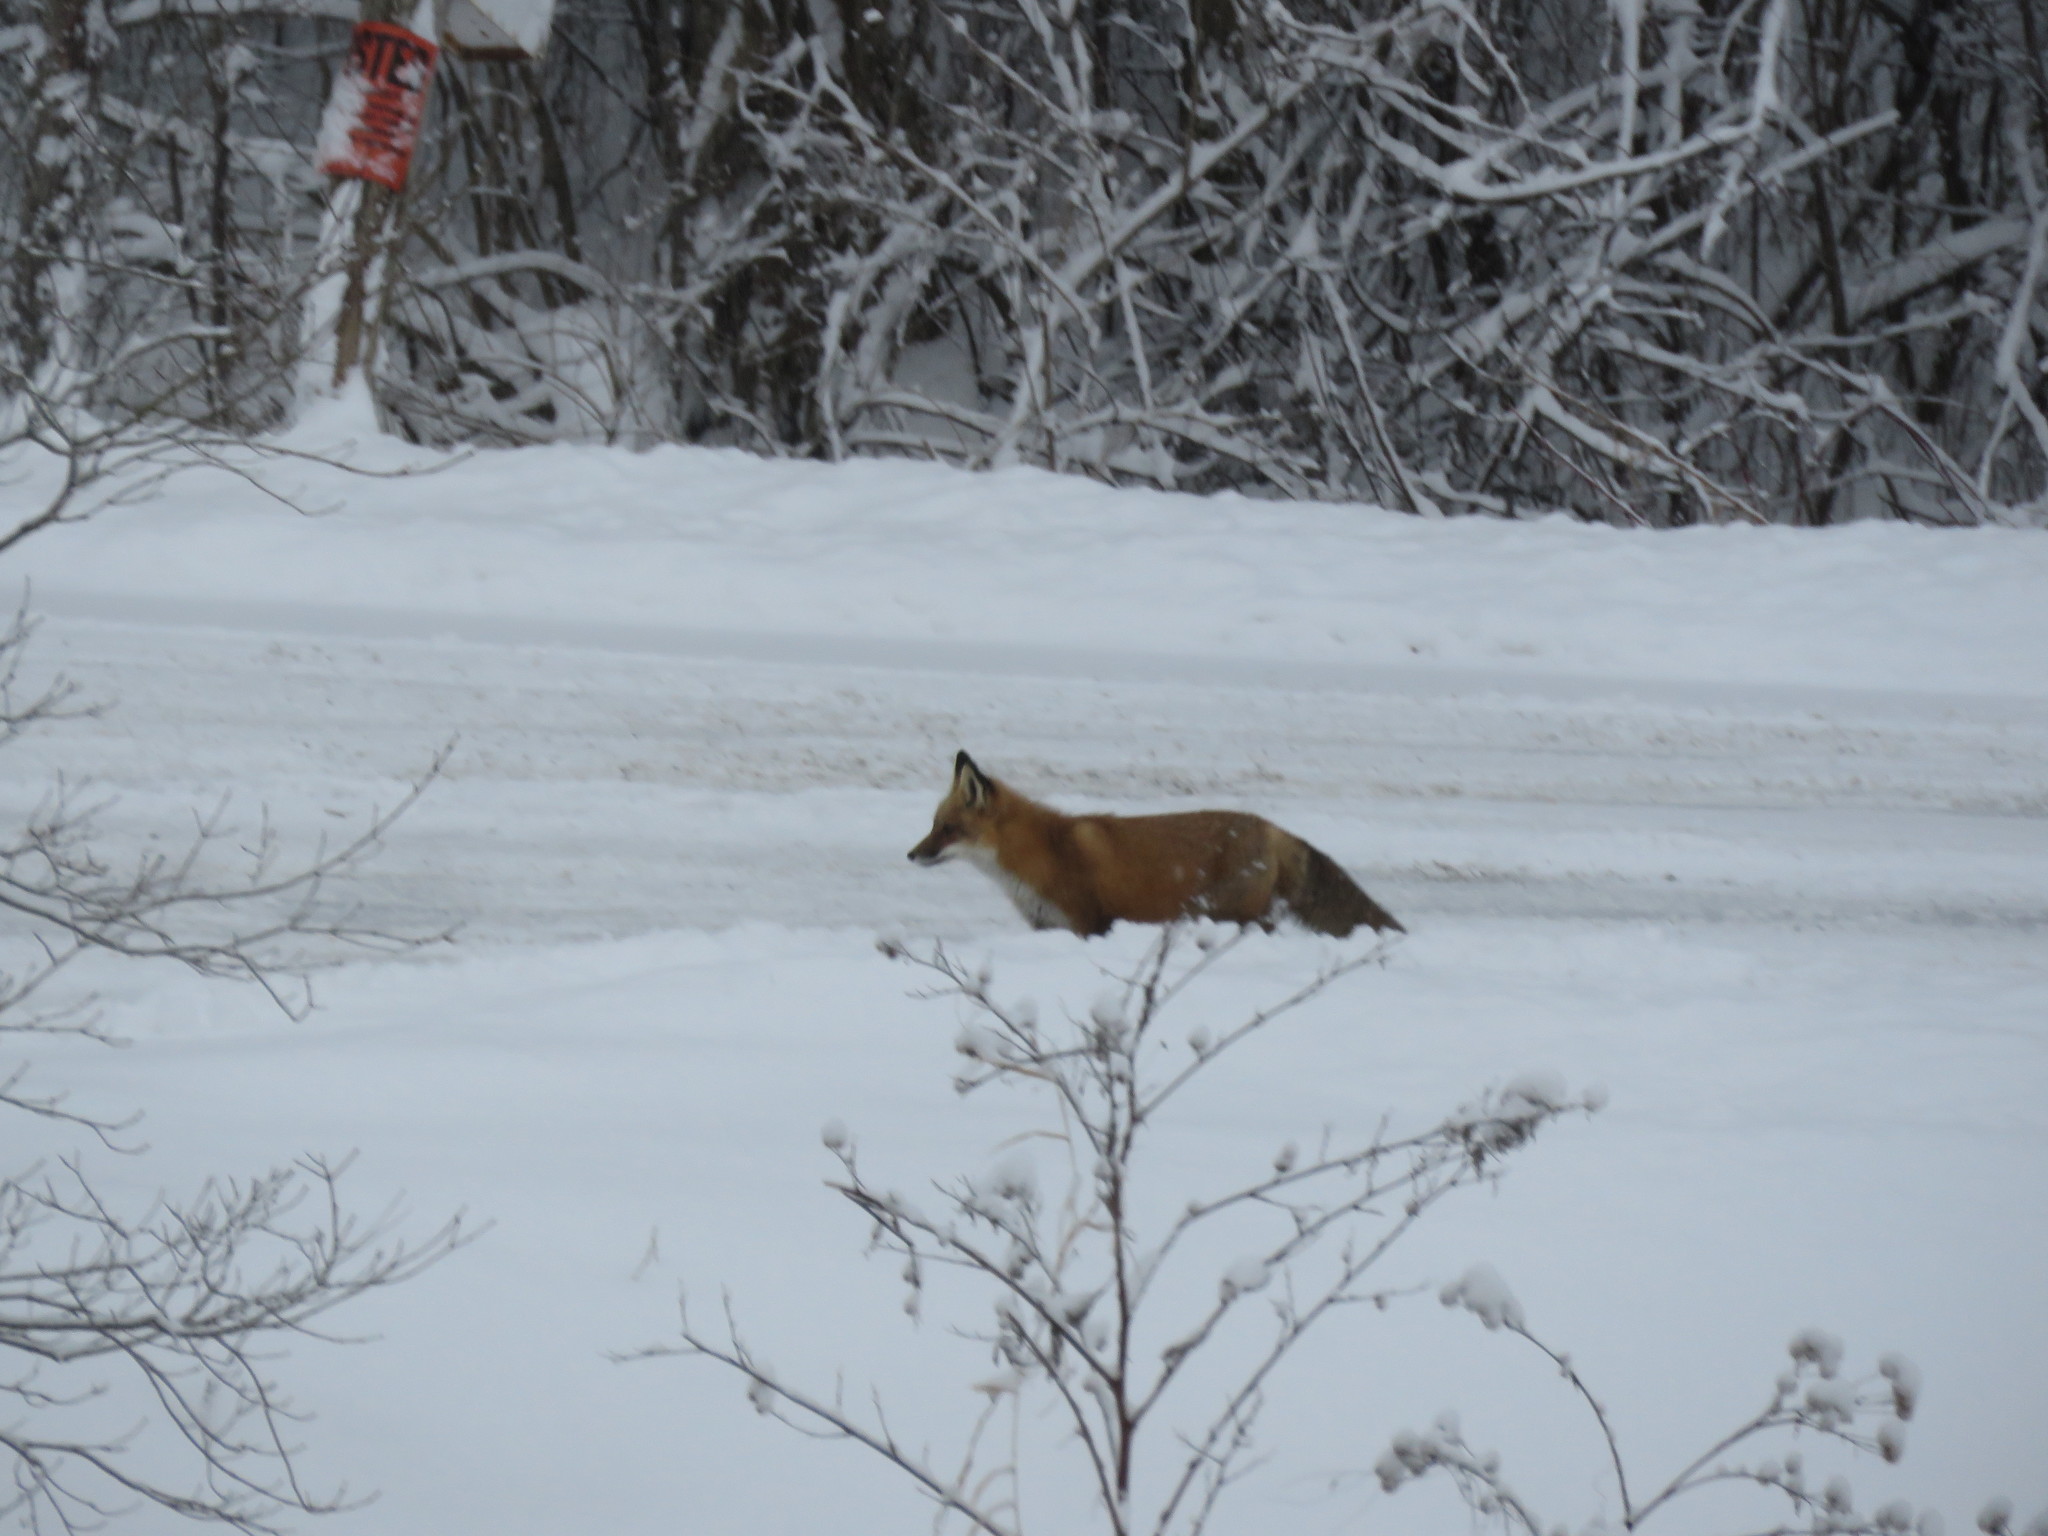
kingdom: Animalia
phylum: Chordata
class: Mammalia
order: Carnivora
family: Canidae
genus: Vulpes
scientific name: Vulpes vulpes
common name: Red fox
